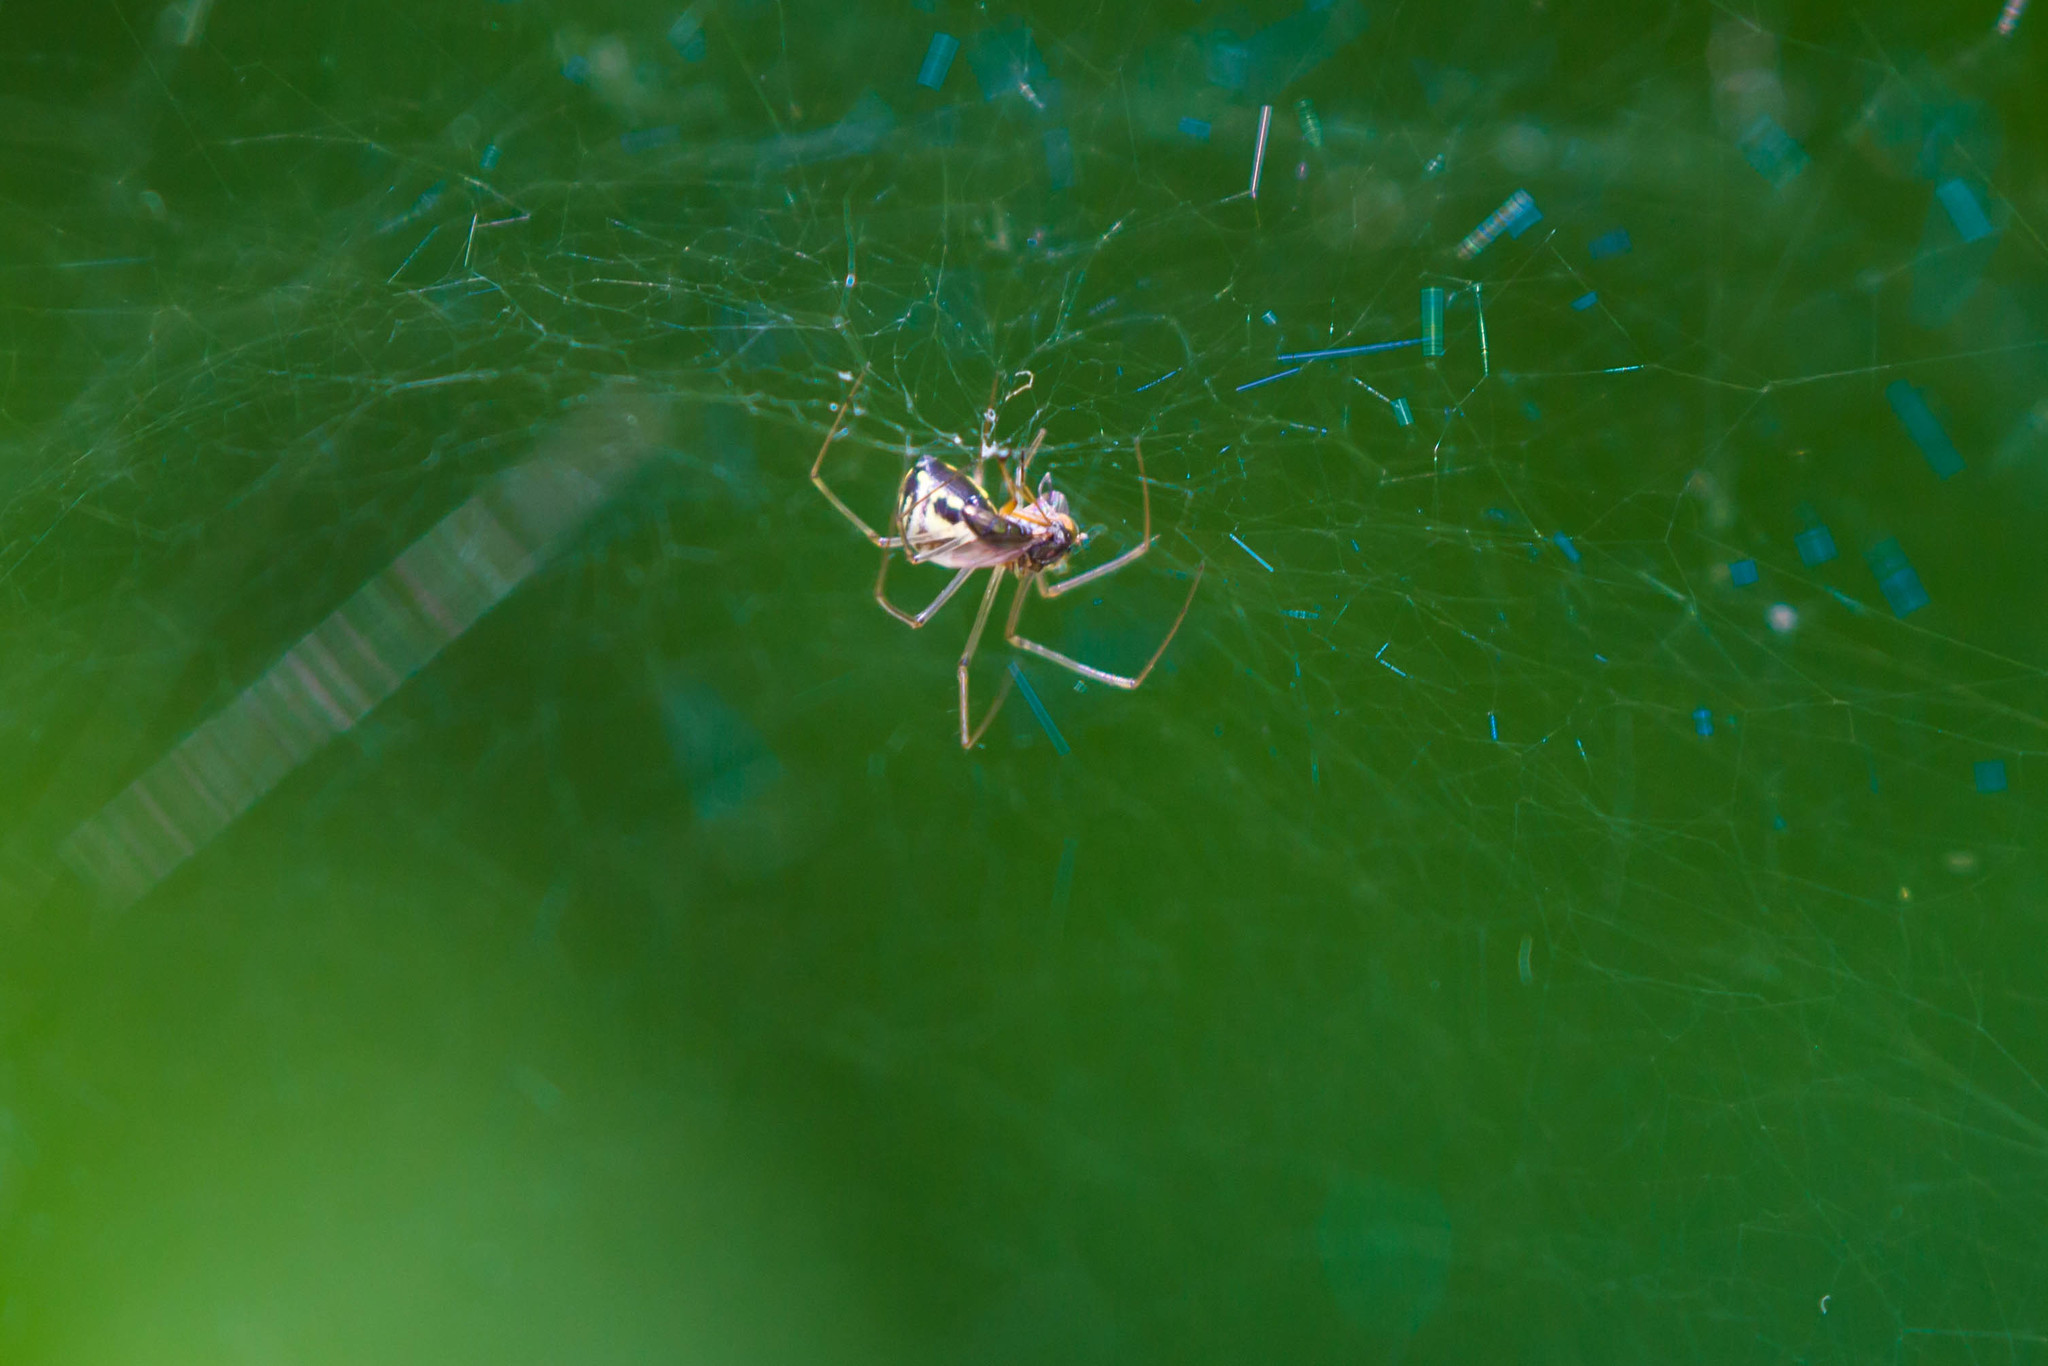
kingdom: Animalia
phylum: Arthropoda
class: Arachnida
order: Araneae
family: Linyphiidae
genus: Neriene
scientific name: Neriene radiata
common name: Filmy dome spider
